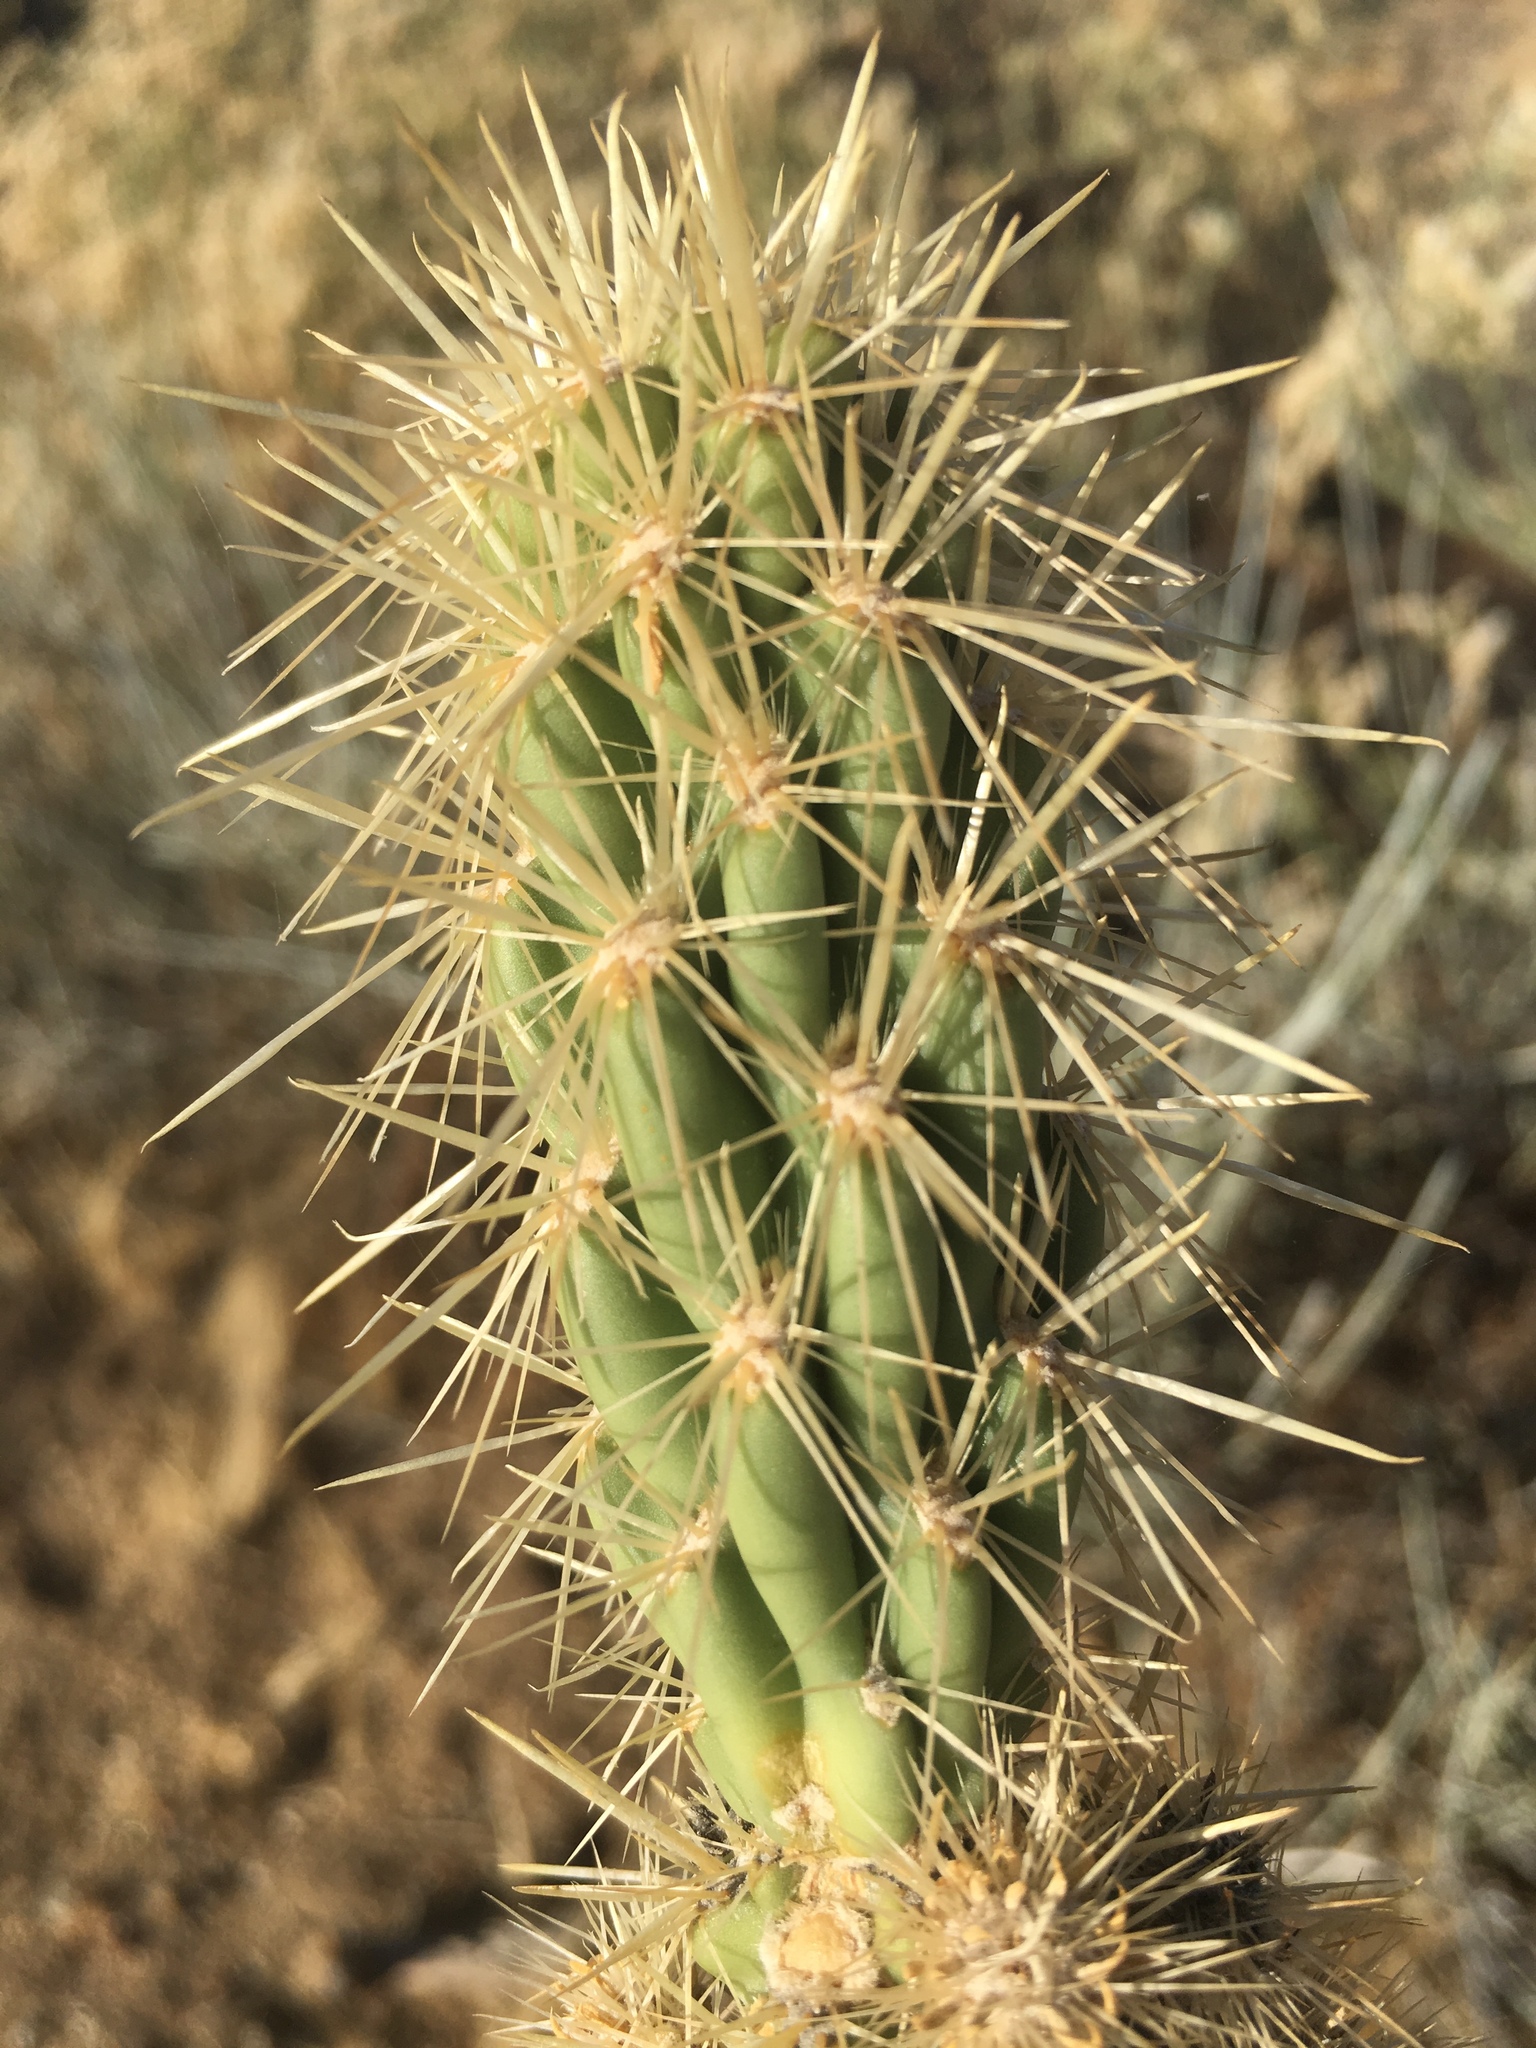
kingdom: Plantae
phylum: Tracheophyta
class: Magnoliopsida
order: Caryophyllales
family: Cactaceae
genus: Cylindropuntia
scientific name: Cylindropuntia ganderi
